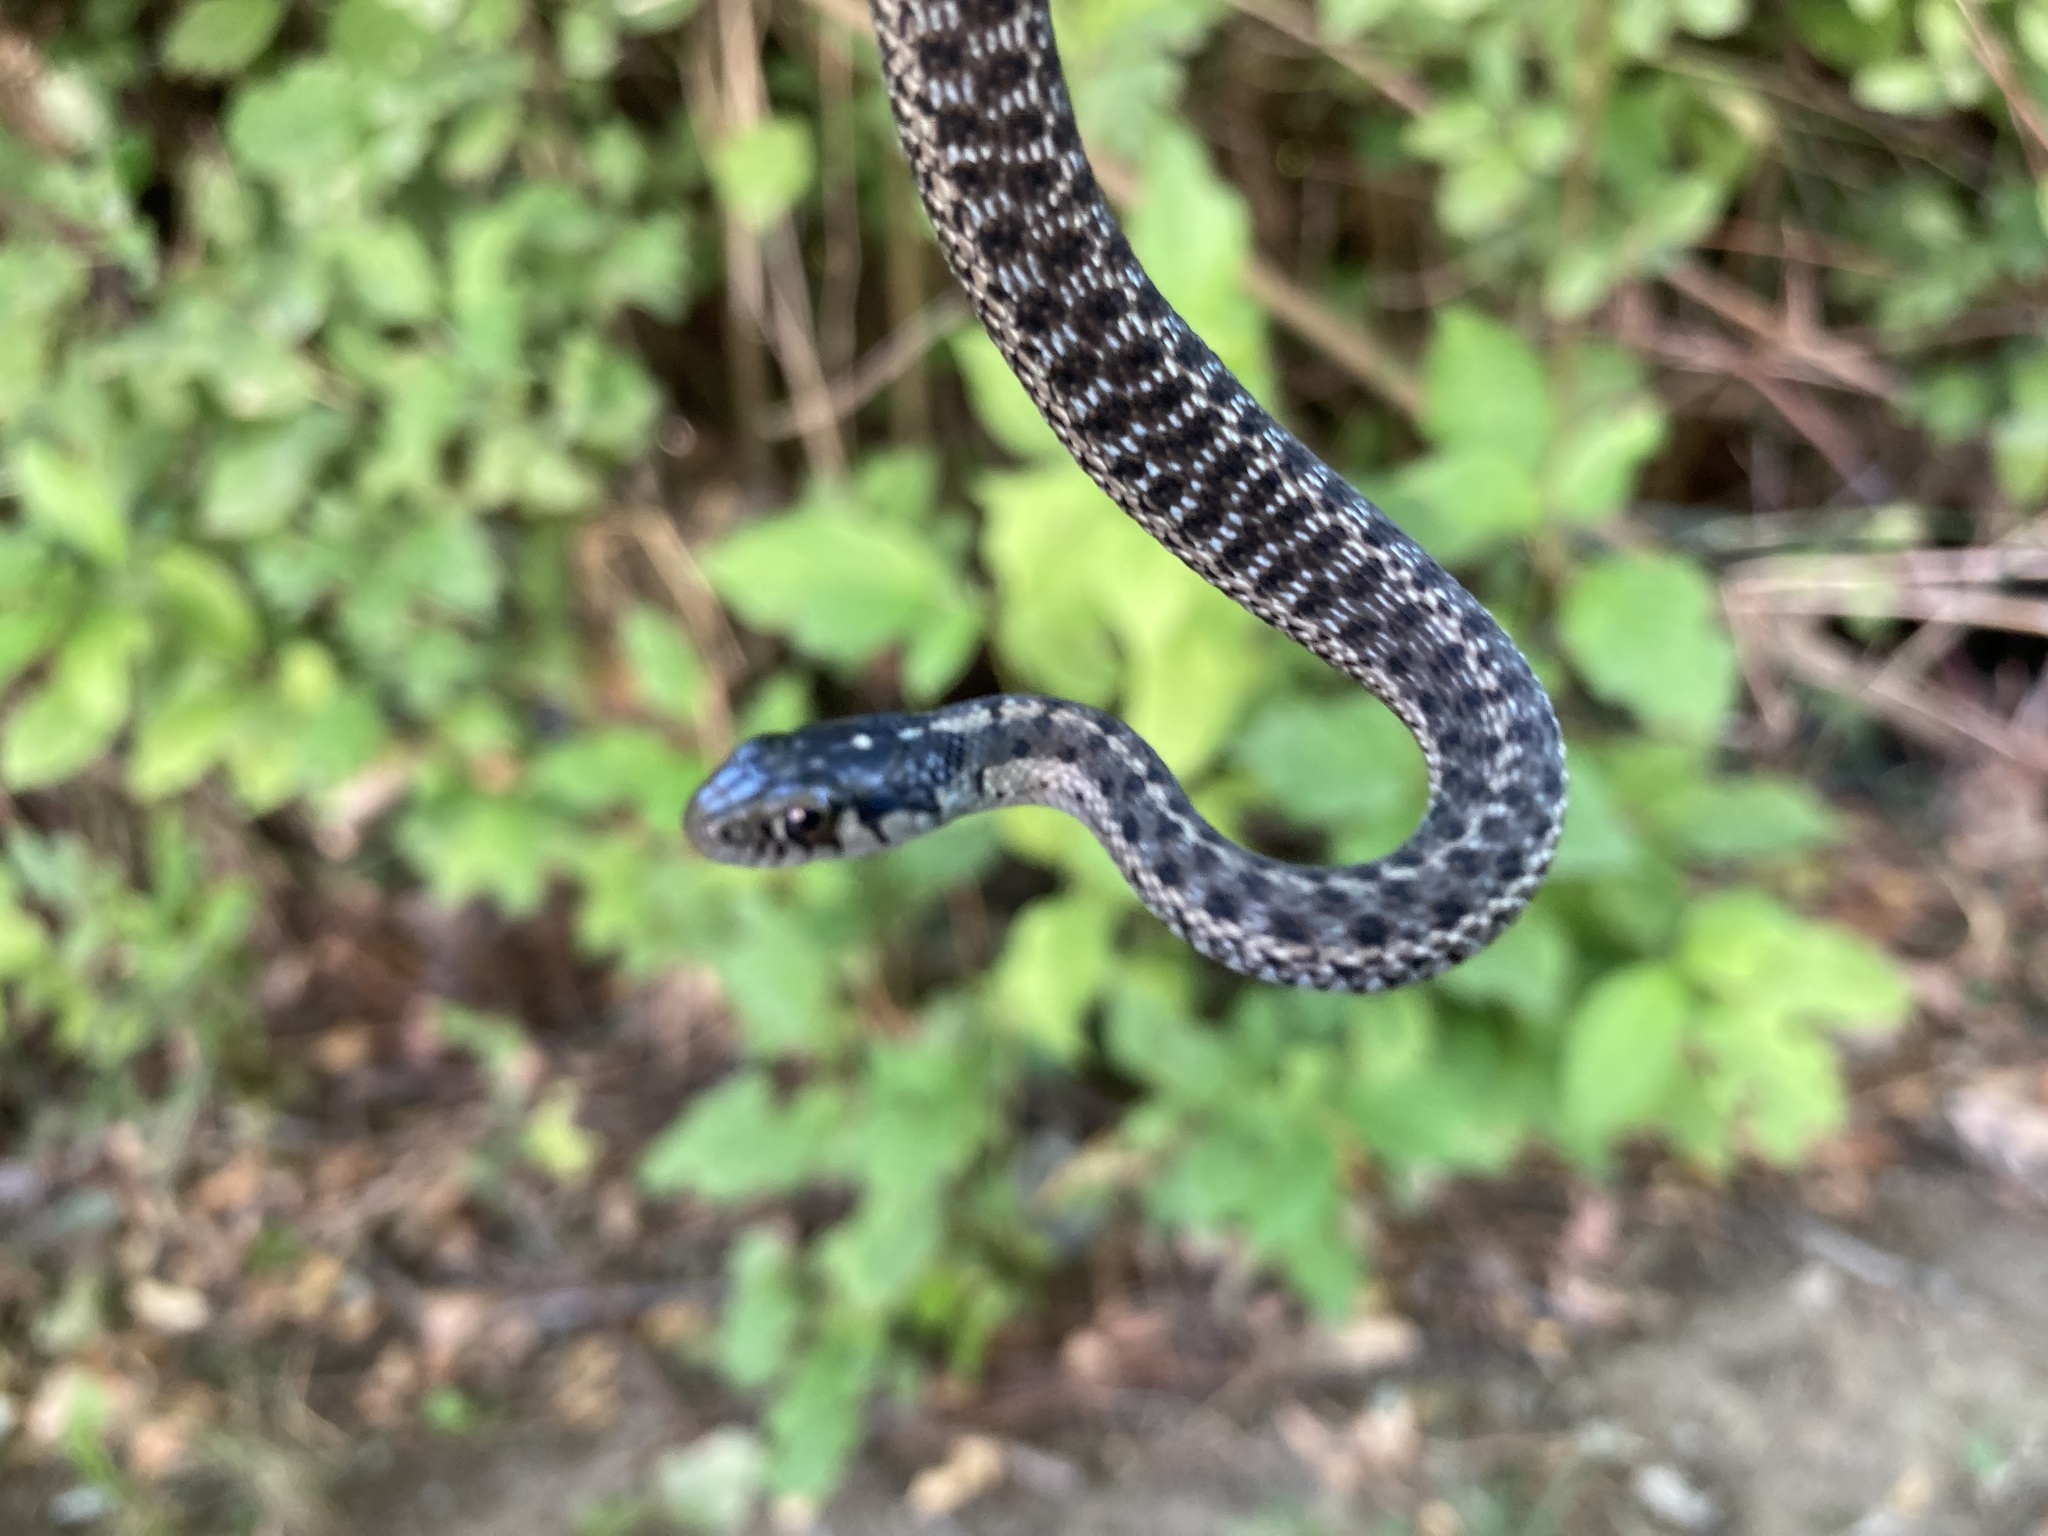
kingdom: Animalia
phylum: Chordata
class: Squamata
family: Colubridae
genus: Thamnophis
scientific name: Thamnophis elegans
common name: Western terrestrial garter snake
